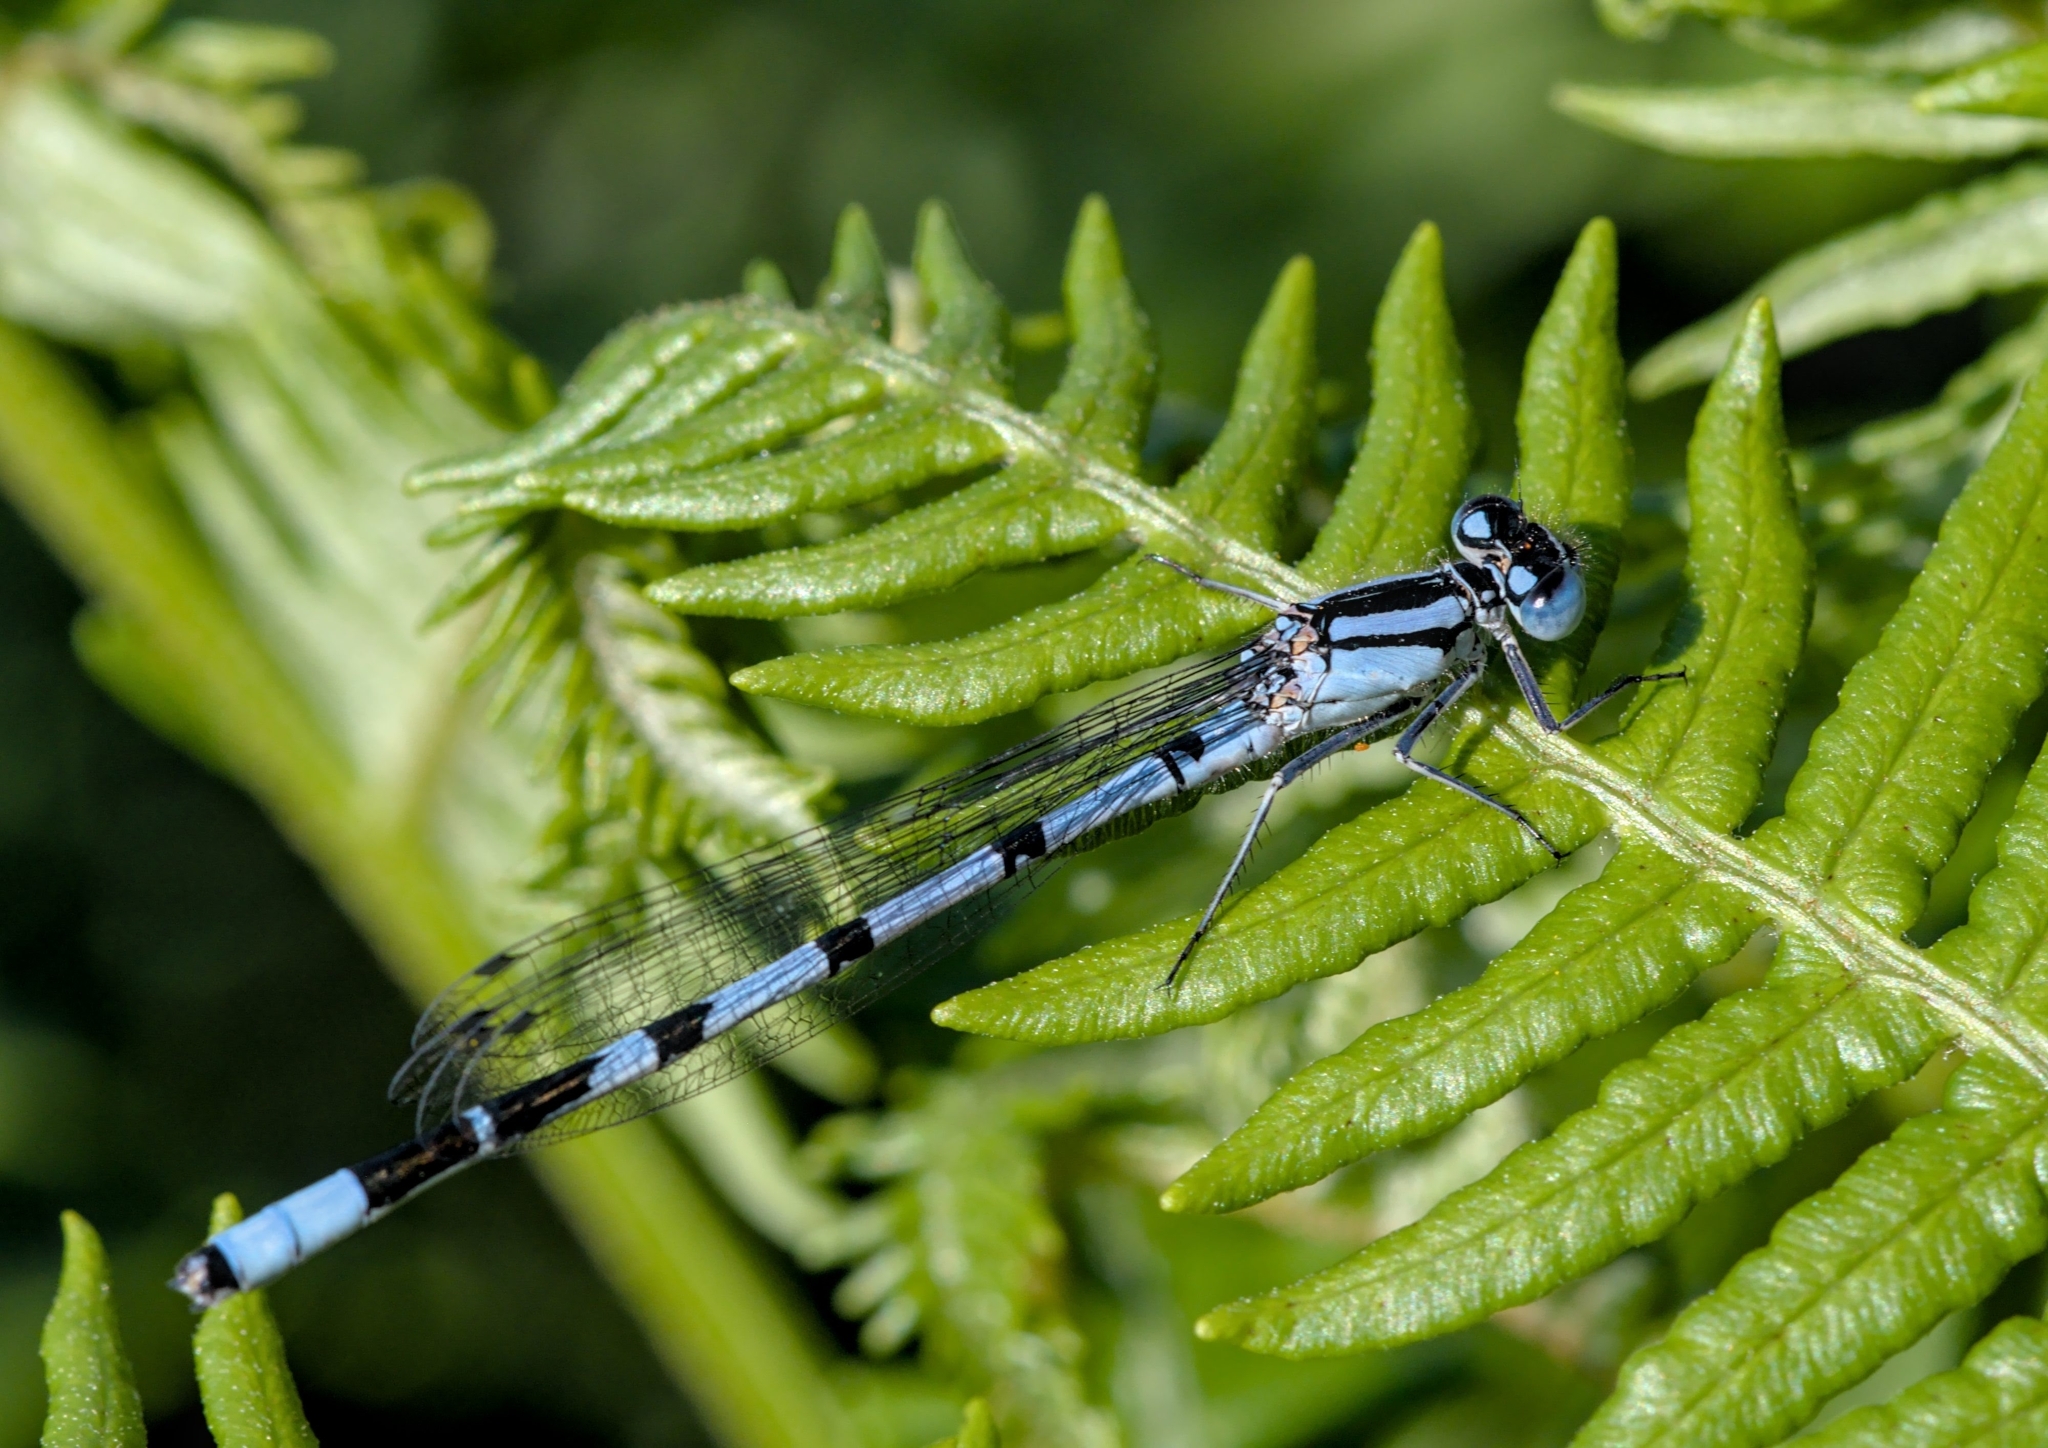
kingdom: Animalia
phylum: Arthropoda
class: Insecta
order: Odonata
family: Coenagrionidae
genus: Enallagma
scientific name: Enallagma cyathigerum
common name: Common blue damselfly
